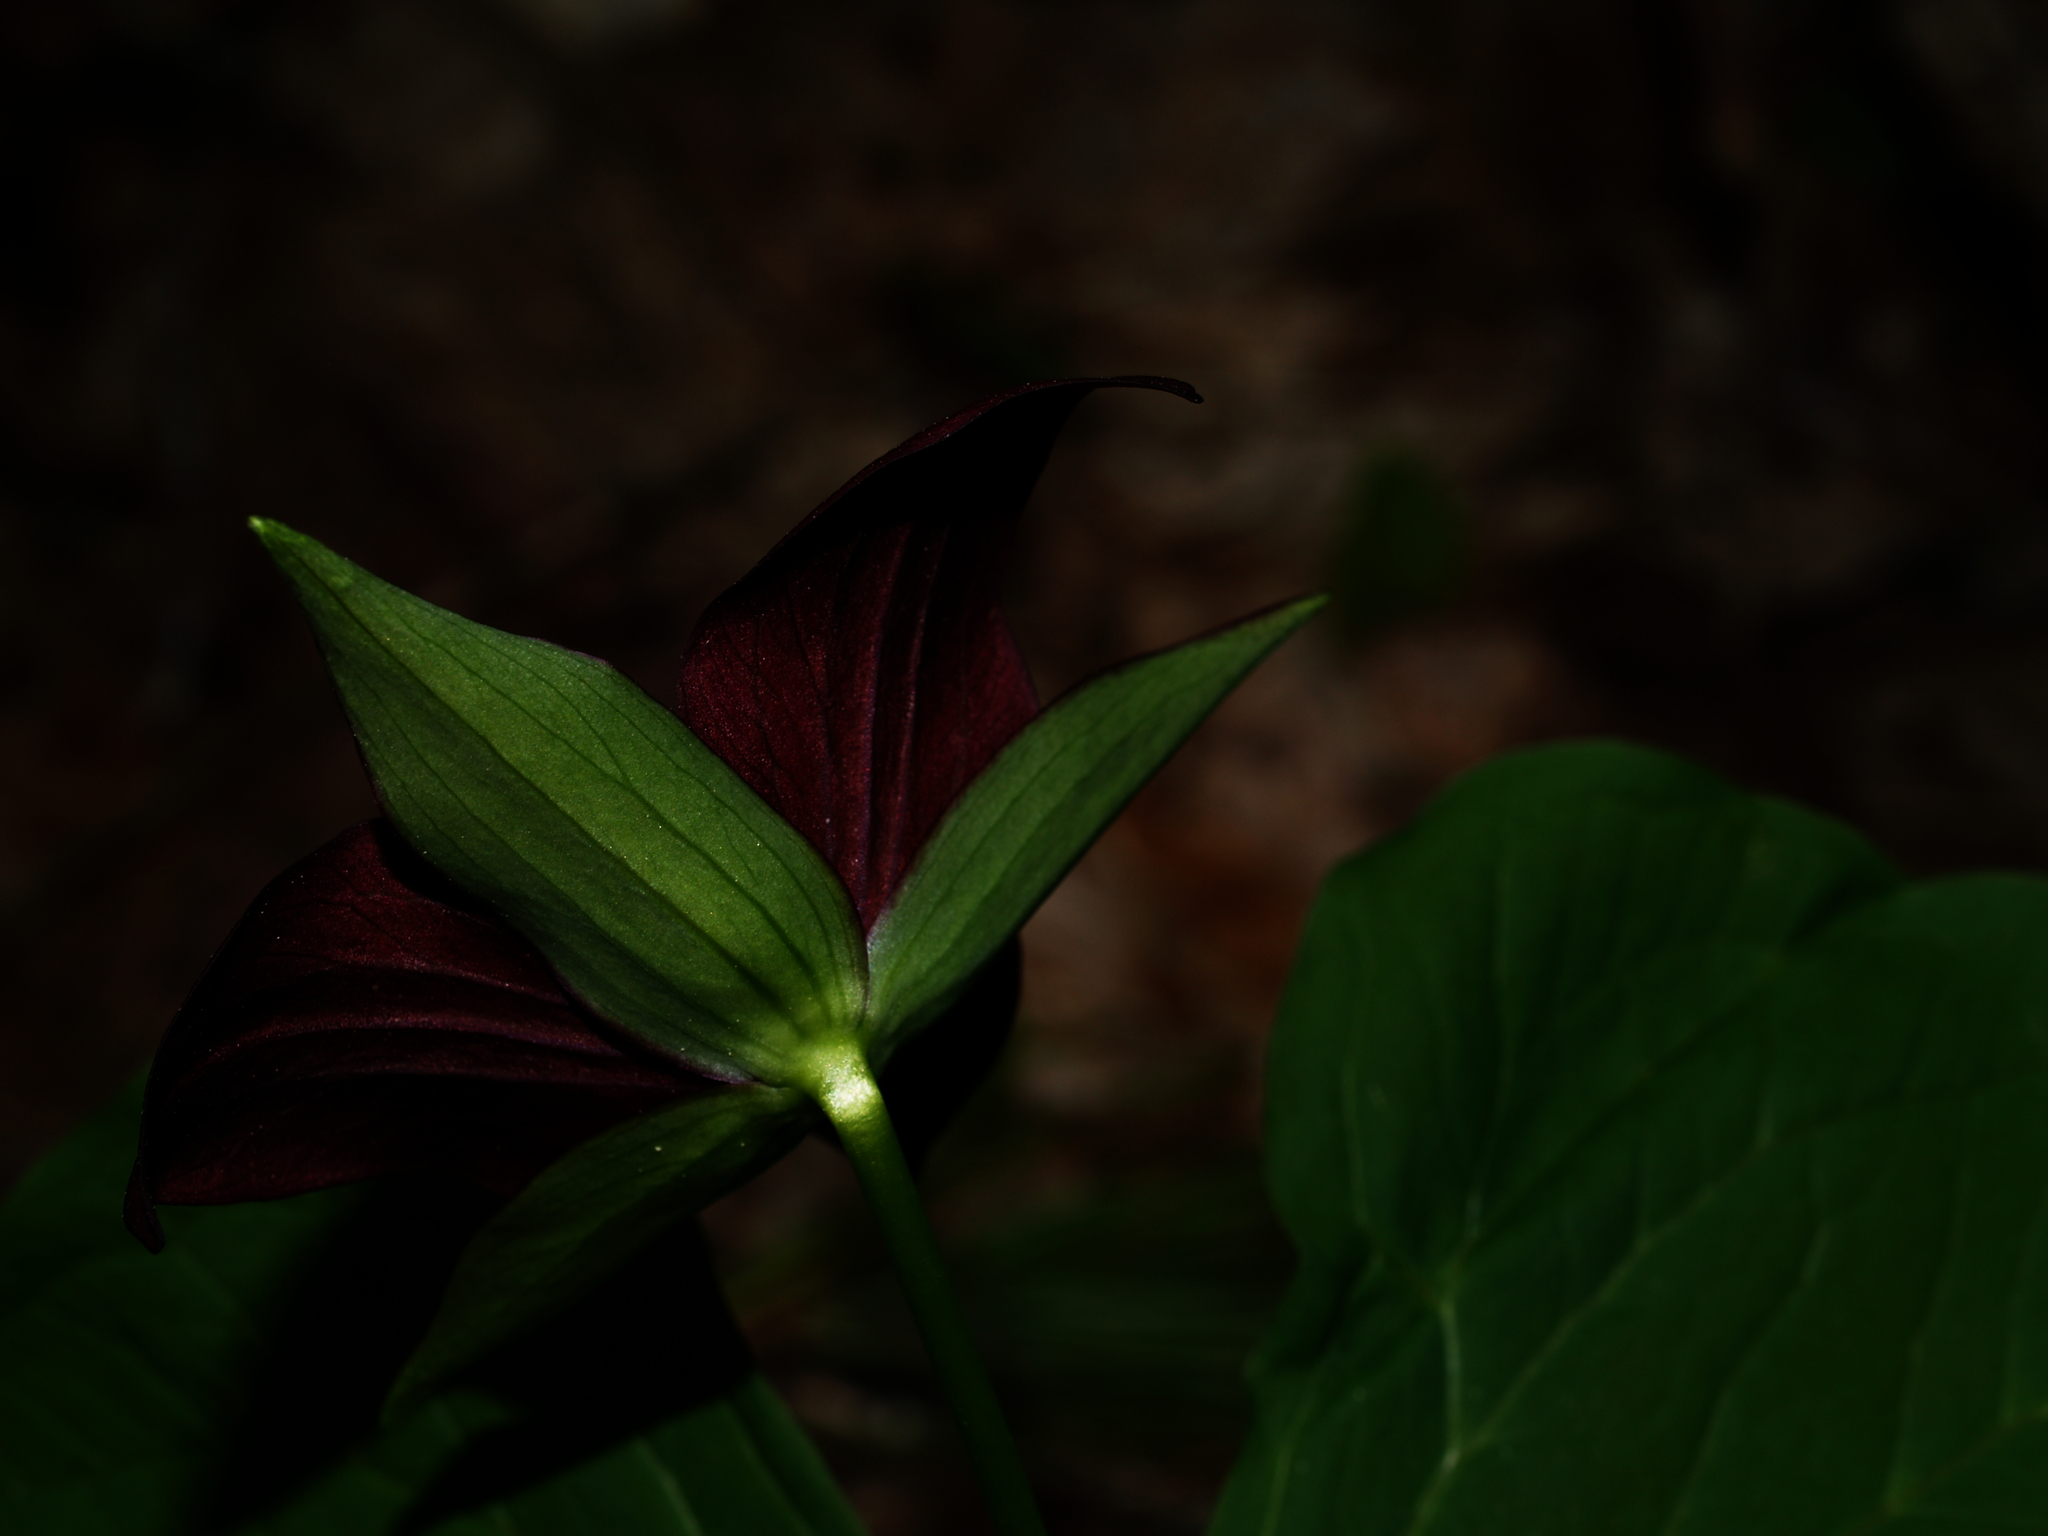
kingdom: Plantae
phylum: Tracheophyta
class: Liliopsida
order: Liliales
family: Melanthiaceae
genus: Trillium
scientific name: Trillium erectum
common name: Purple trillium
